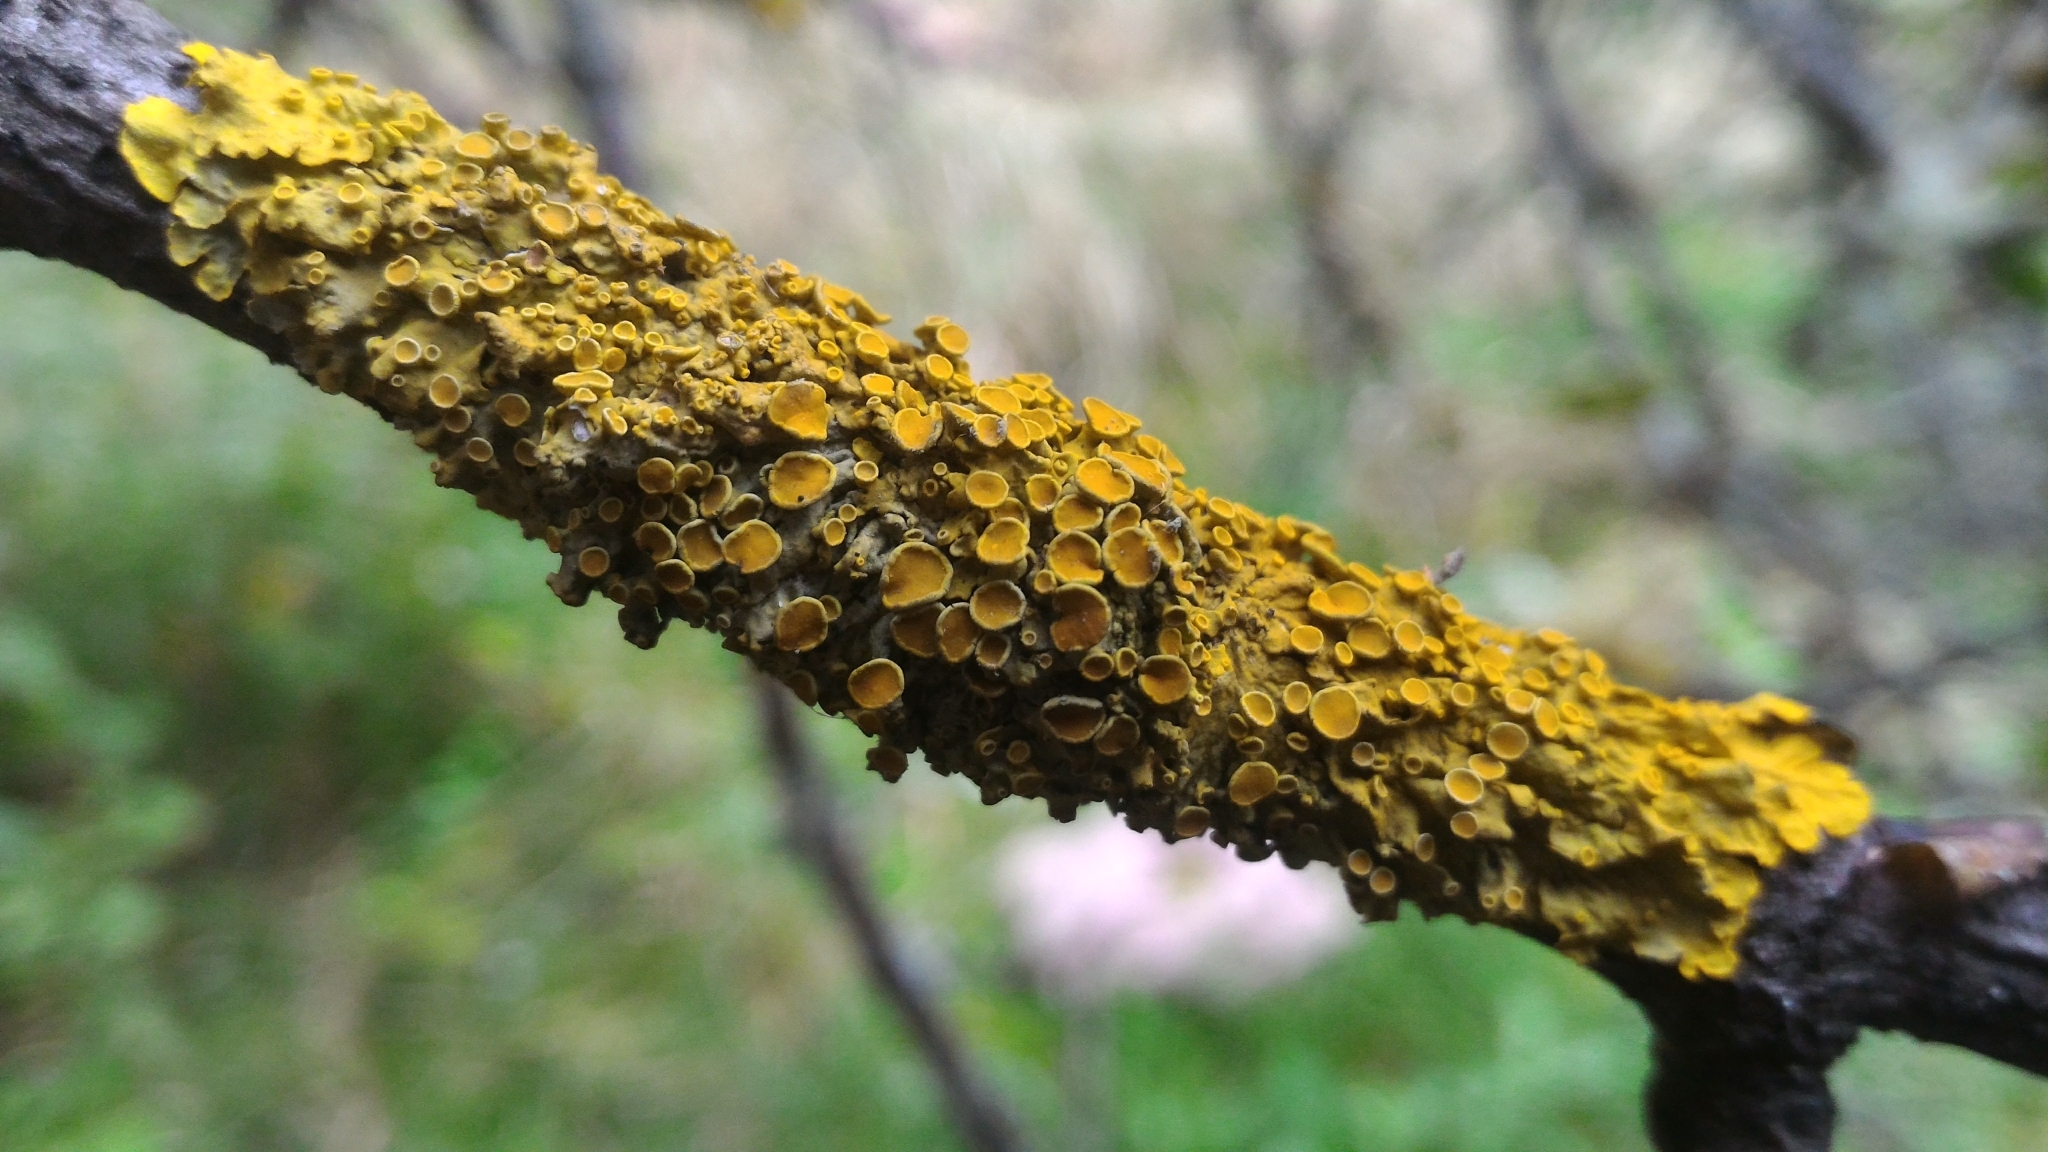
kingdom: Fungi
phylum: Ascomycota
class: Lecanoromycetes
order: Teloschistales
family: Teloschistaceae
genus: Xanthoria
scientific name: Xanthoria parietina
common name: Common orange lichen
